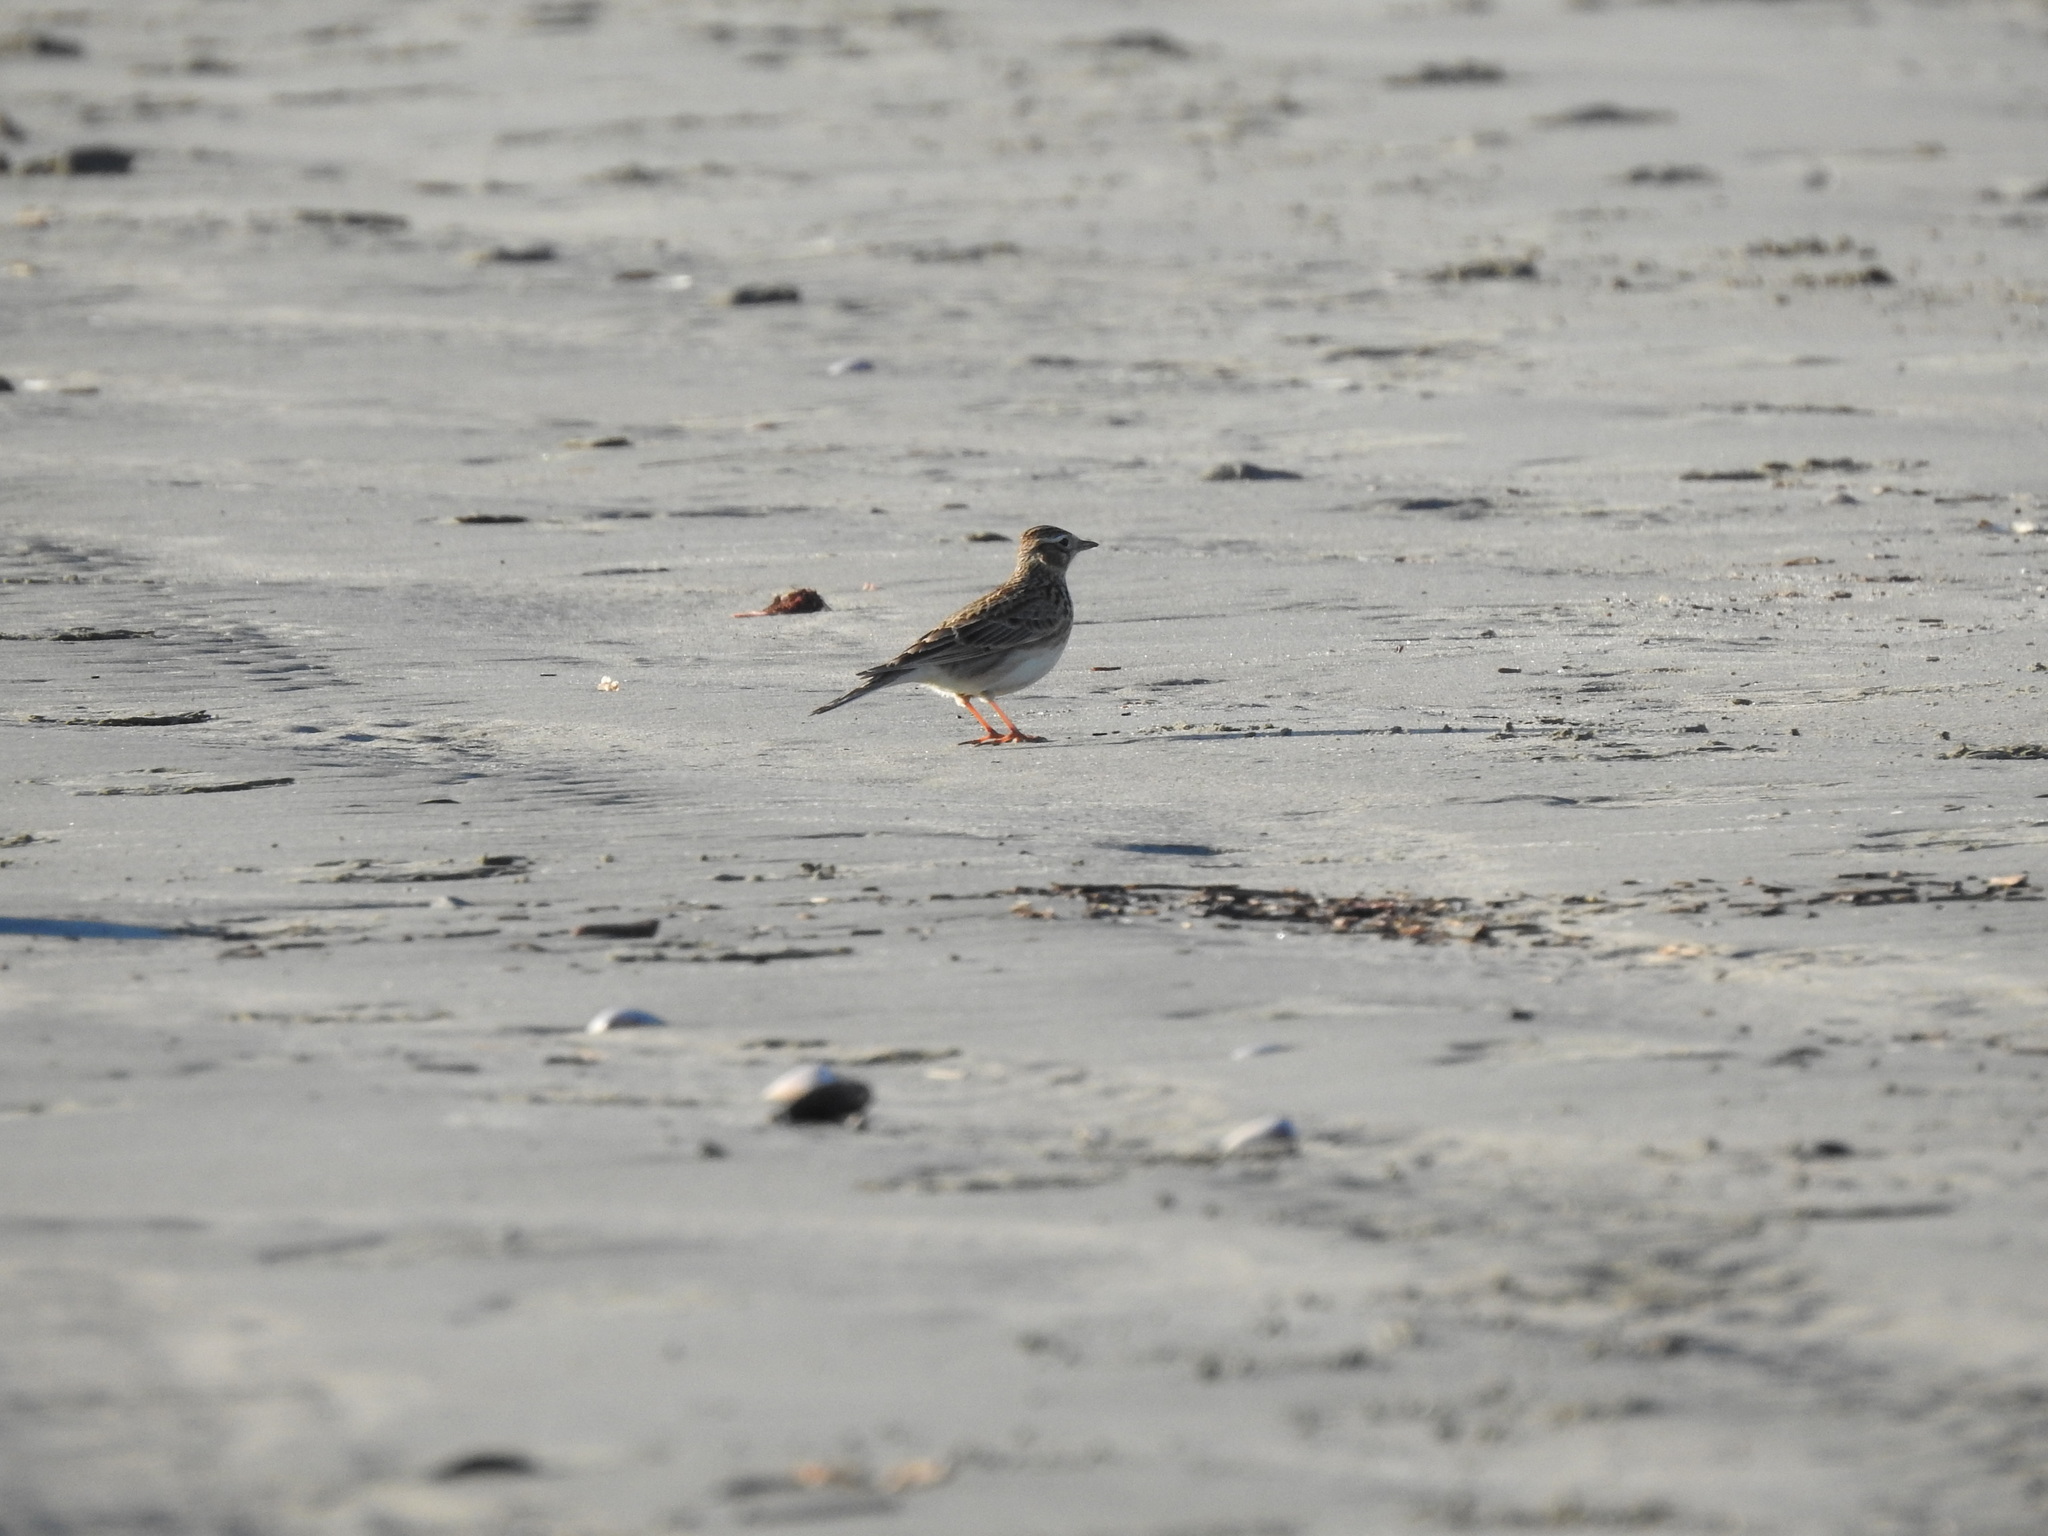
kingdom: Animalia
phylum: Chordata
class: Aves
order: Passeriformes
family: Motacillidae
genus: Anthus
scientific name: Anthus novaeseelandiae
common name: New zealand pipit
